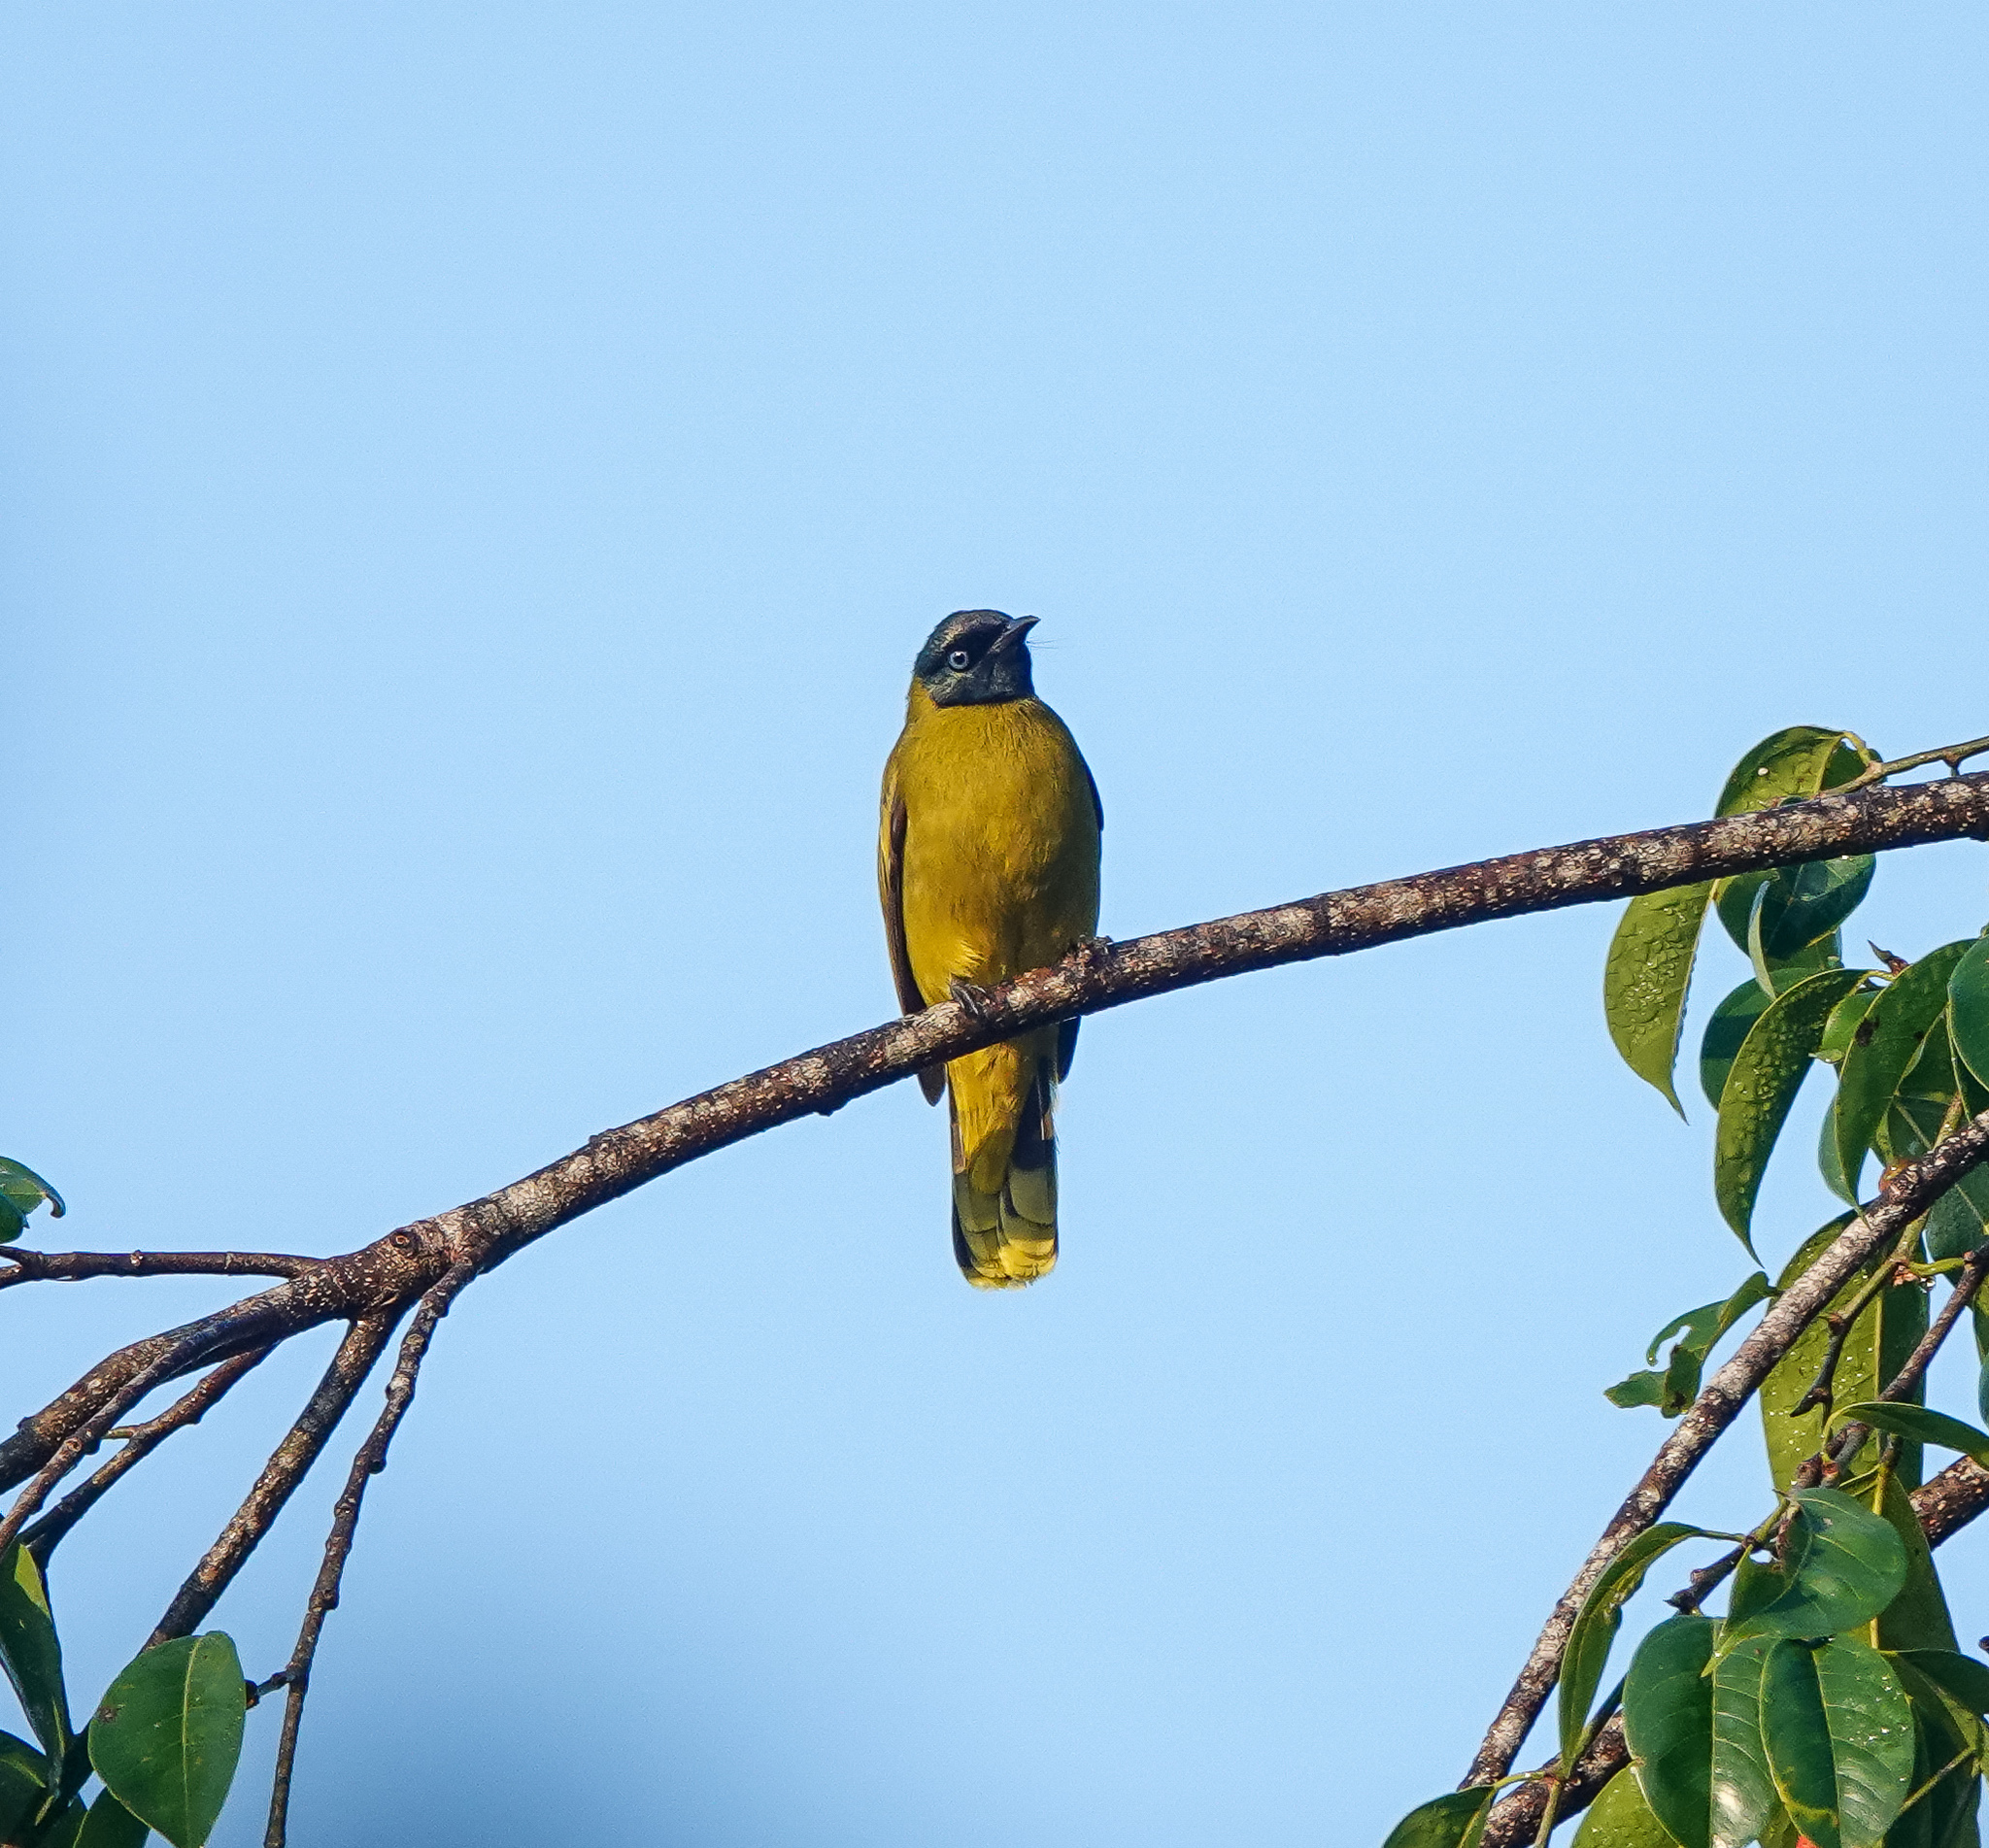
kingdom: Animalia
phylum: Chordata
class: Aves
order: Passeriformes
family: Pycnonotidae
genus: Microtarsus
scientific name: Microtarsus
